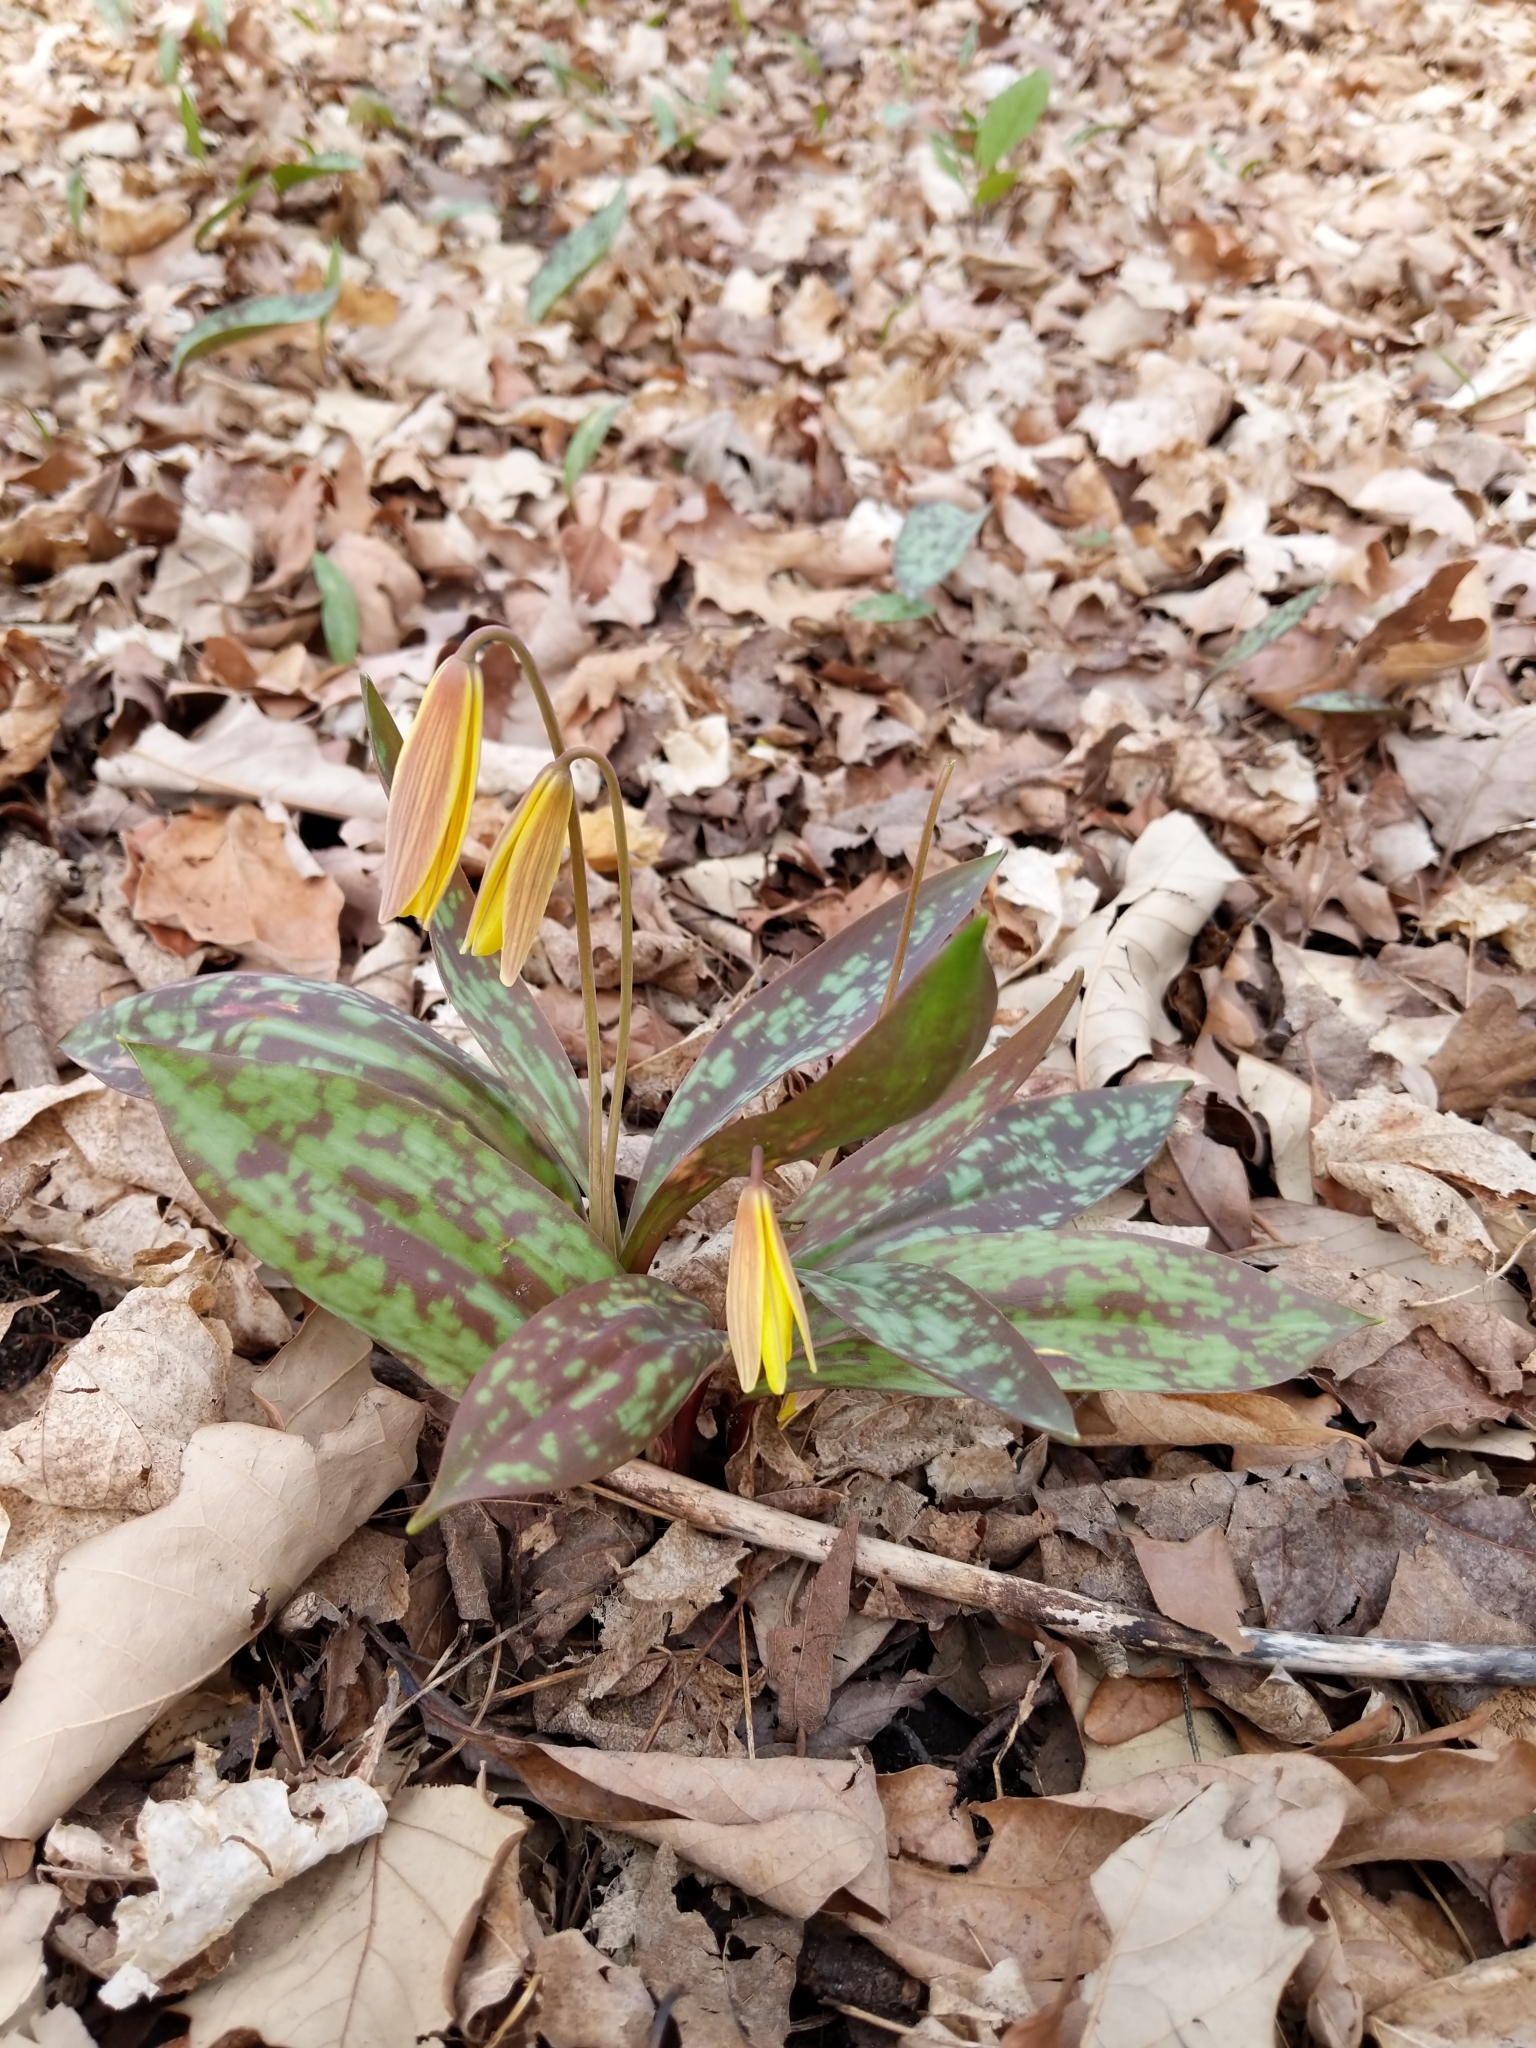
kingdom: Plantae
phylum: Tracheophyta
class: Liliopsida
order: Liliales
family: Liliaceae
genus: Erythronium
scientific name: Erythronium americanum
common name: Yellow adder's-tongue
